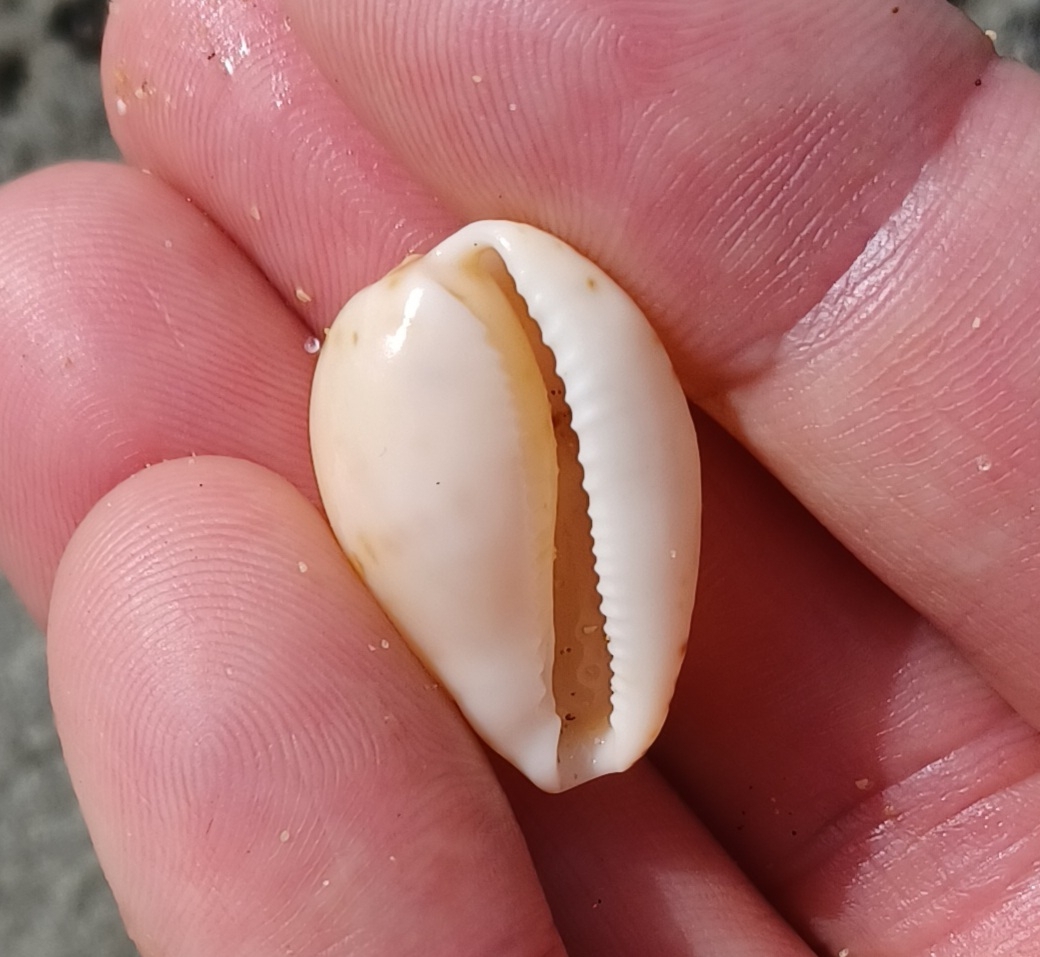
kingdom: Animalia
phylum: Mollusca
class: Gastropoda
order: Littorinimorpha
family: Cypraeidae
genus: Notocypraea
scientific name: Notocypraea comptonii
